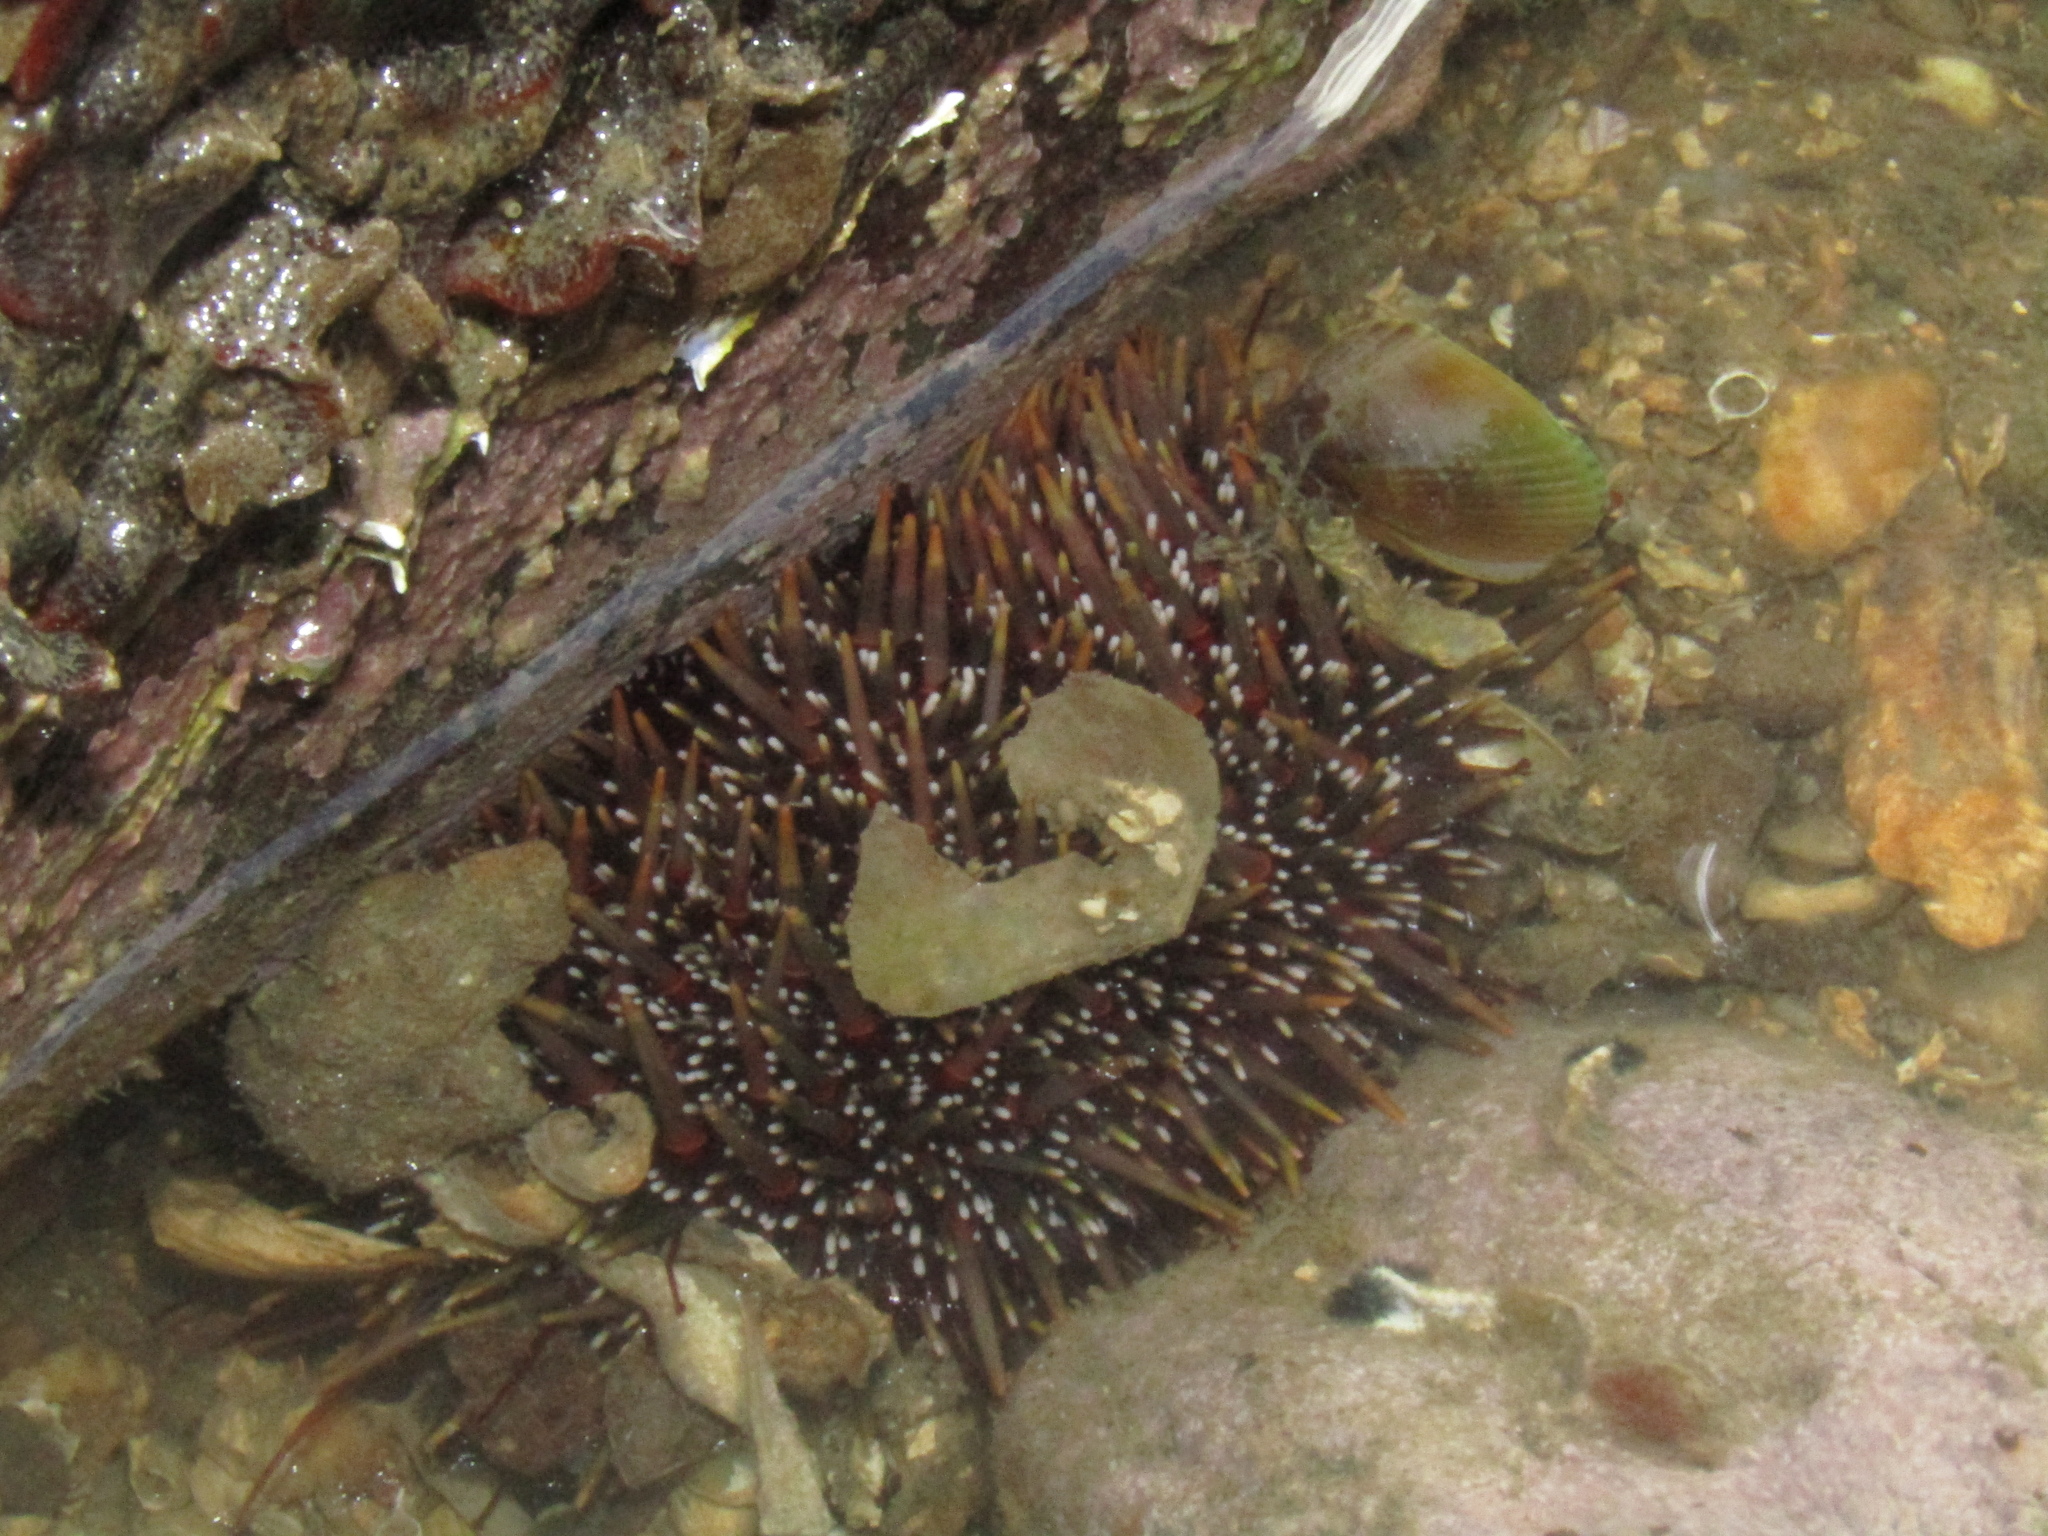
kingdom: Animalia
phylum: Echinodermata
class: Echinoidea
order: Camarodonta
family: Echinometridae
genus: Evechinus
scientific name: Evechinus chloroticus
